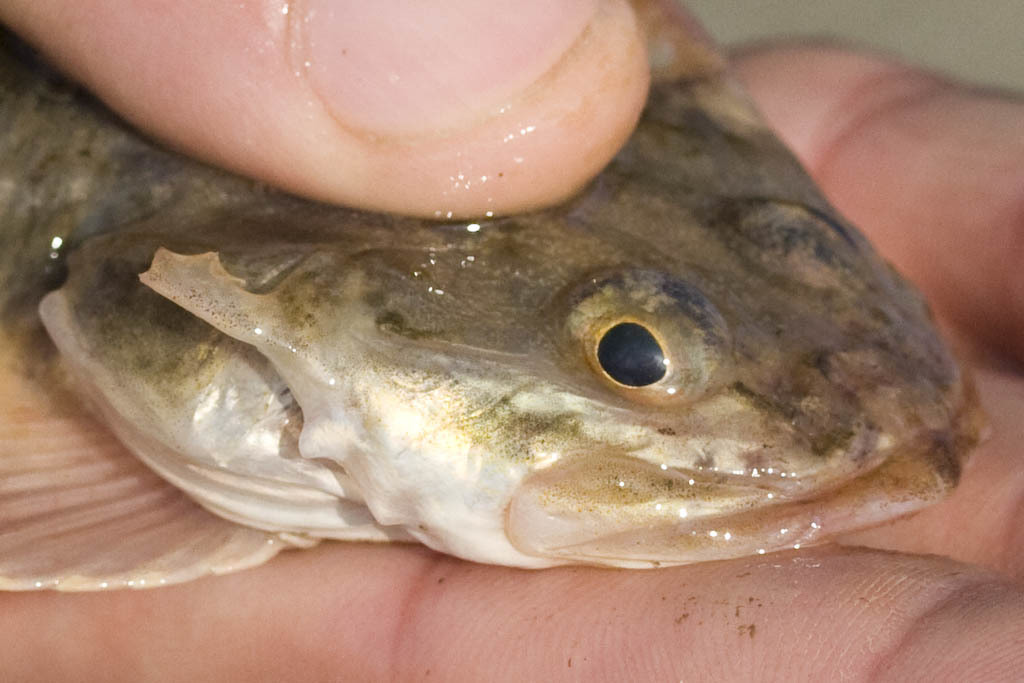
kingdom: Animalia
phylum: Chordata
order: Scorpaeniformes
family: Cottidae
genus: Leptocottus
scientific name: Leptocottus armatus
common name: Pacific staghorn sculpin
